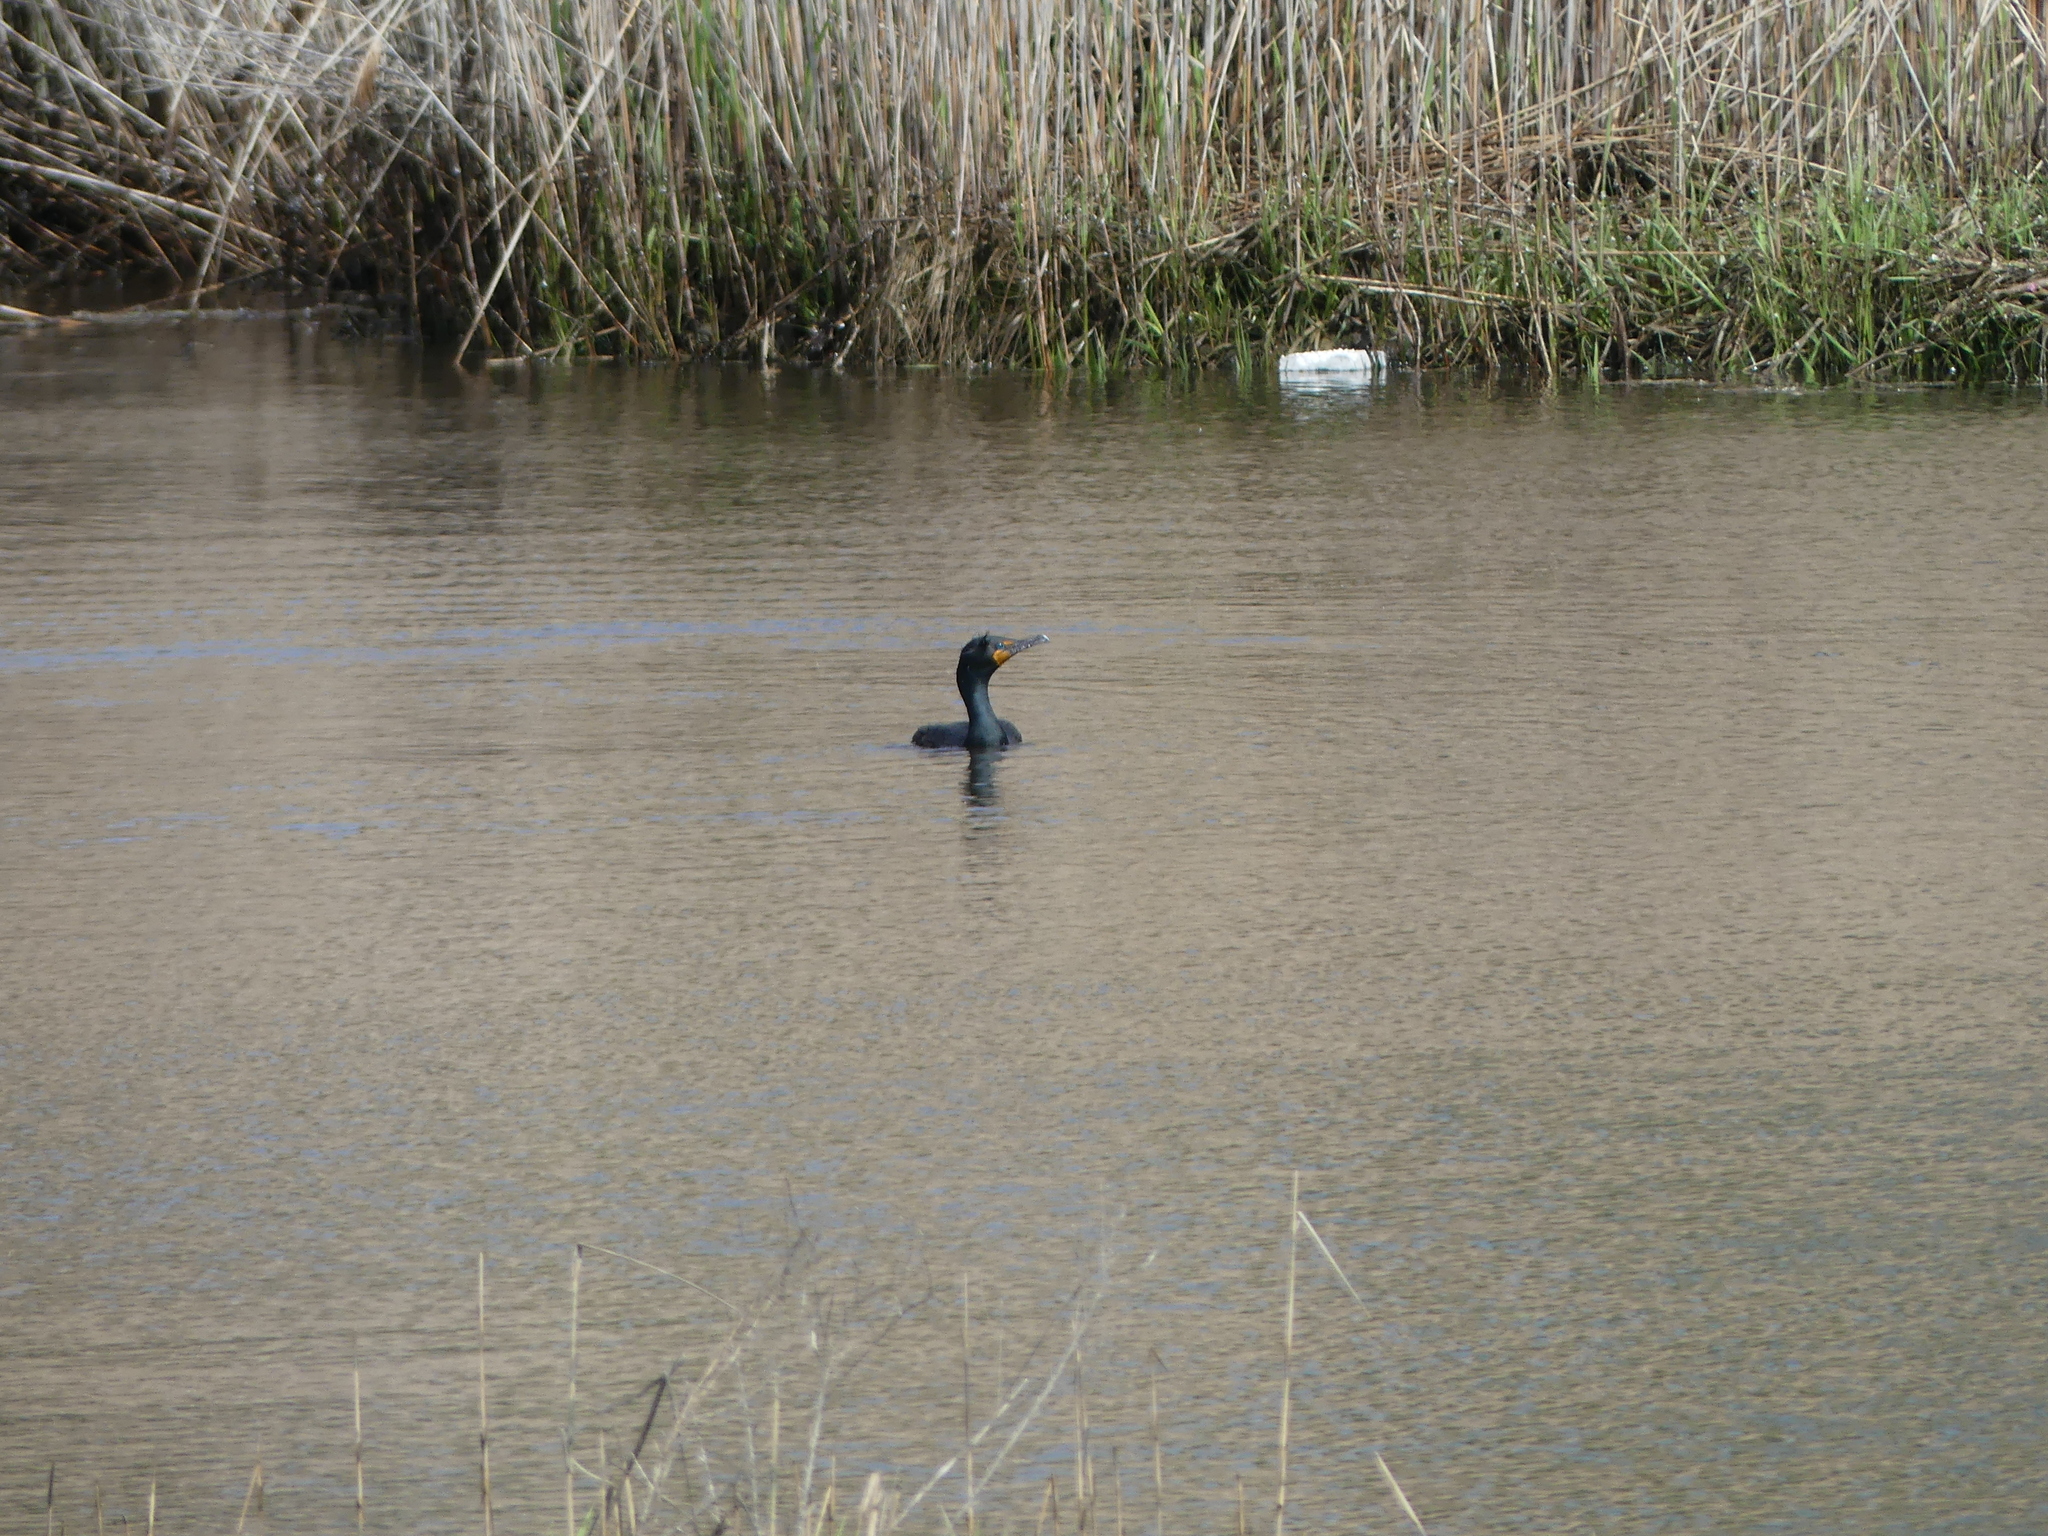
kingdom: Animalia
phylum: Chordata
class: Aves
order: Suliformes
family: Phalacrocoracidae
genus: Phalacrocorax
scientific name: Phalacrocorax auritus
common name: Double-crested cormorant
